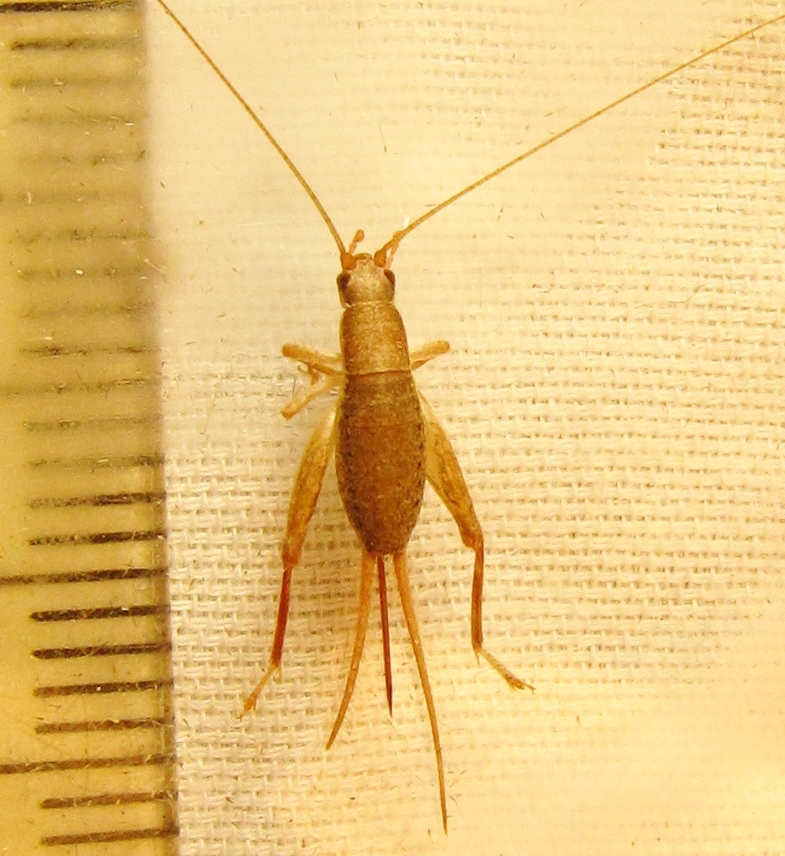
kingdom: Animalia
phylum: Arthropoda
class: Insecta
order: Orthoptera
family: Mogoplistidae
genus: Cycloptilum
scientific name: Cycloptilum trigonipalpum
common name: Forest scaly cricket
